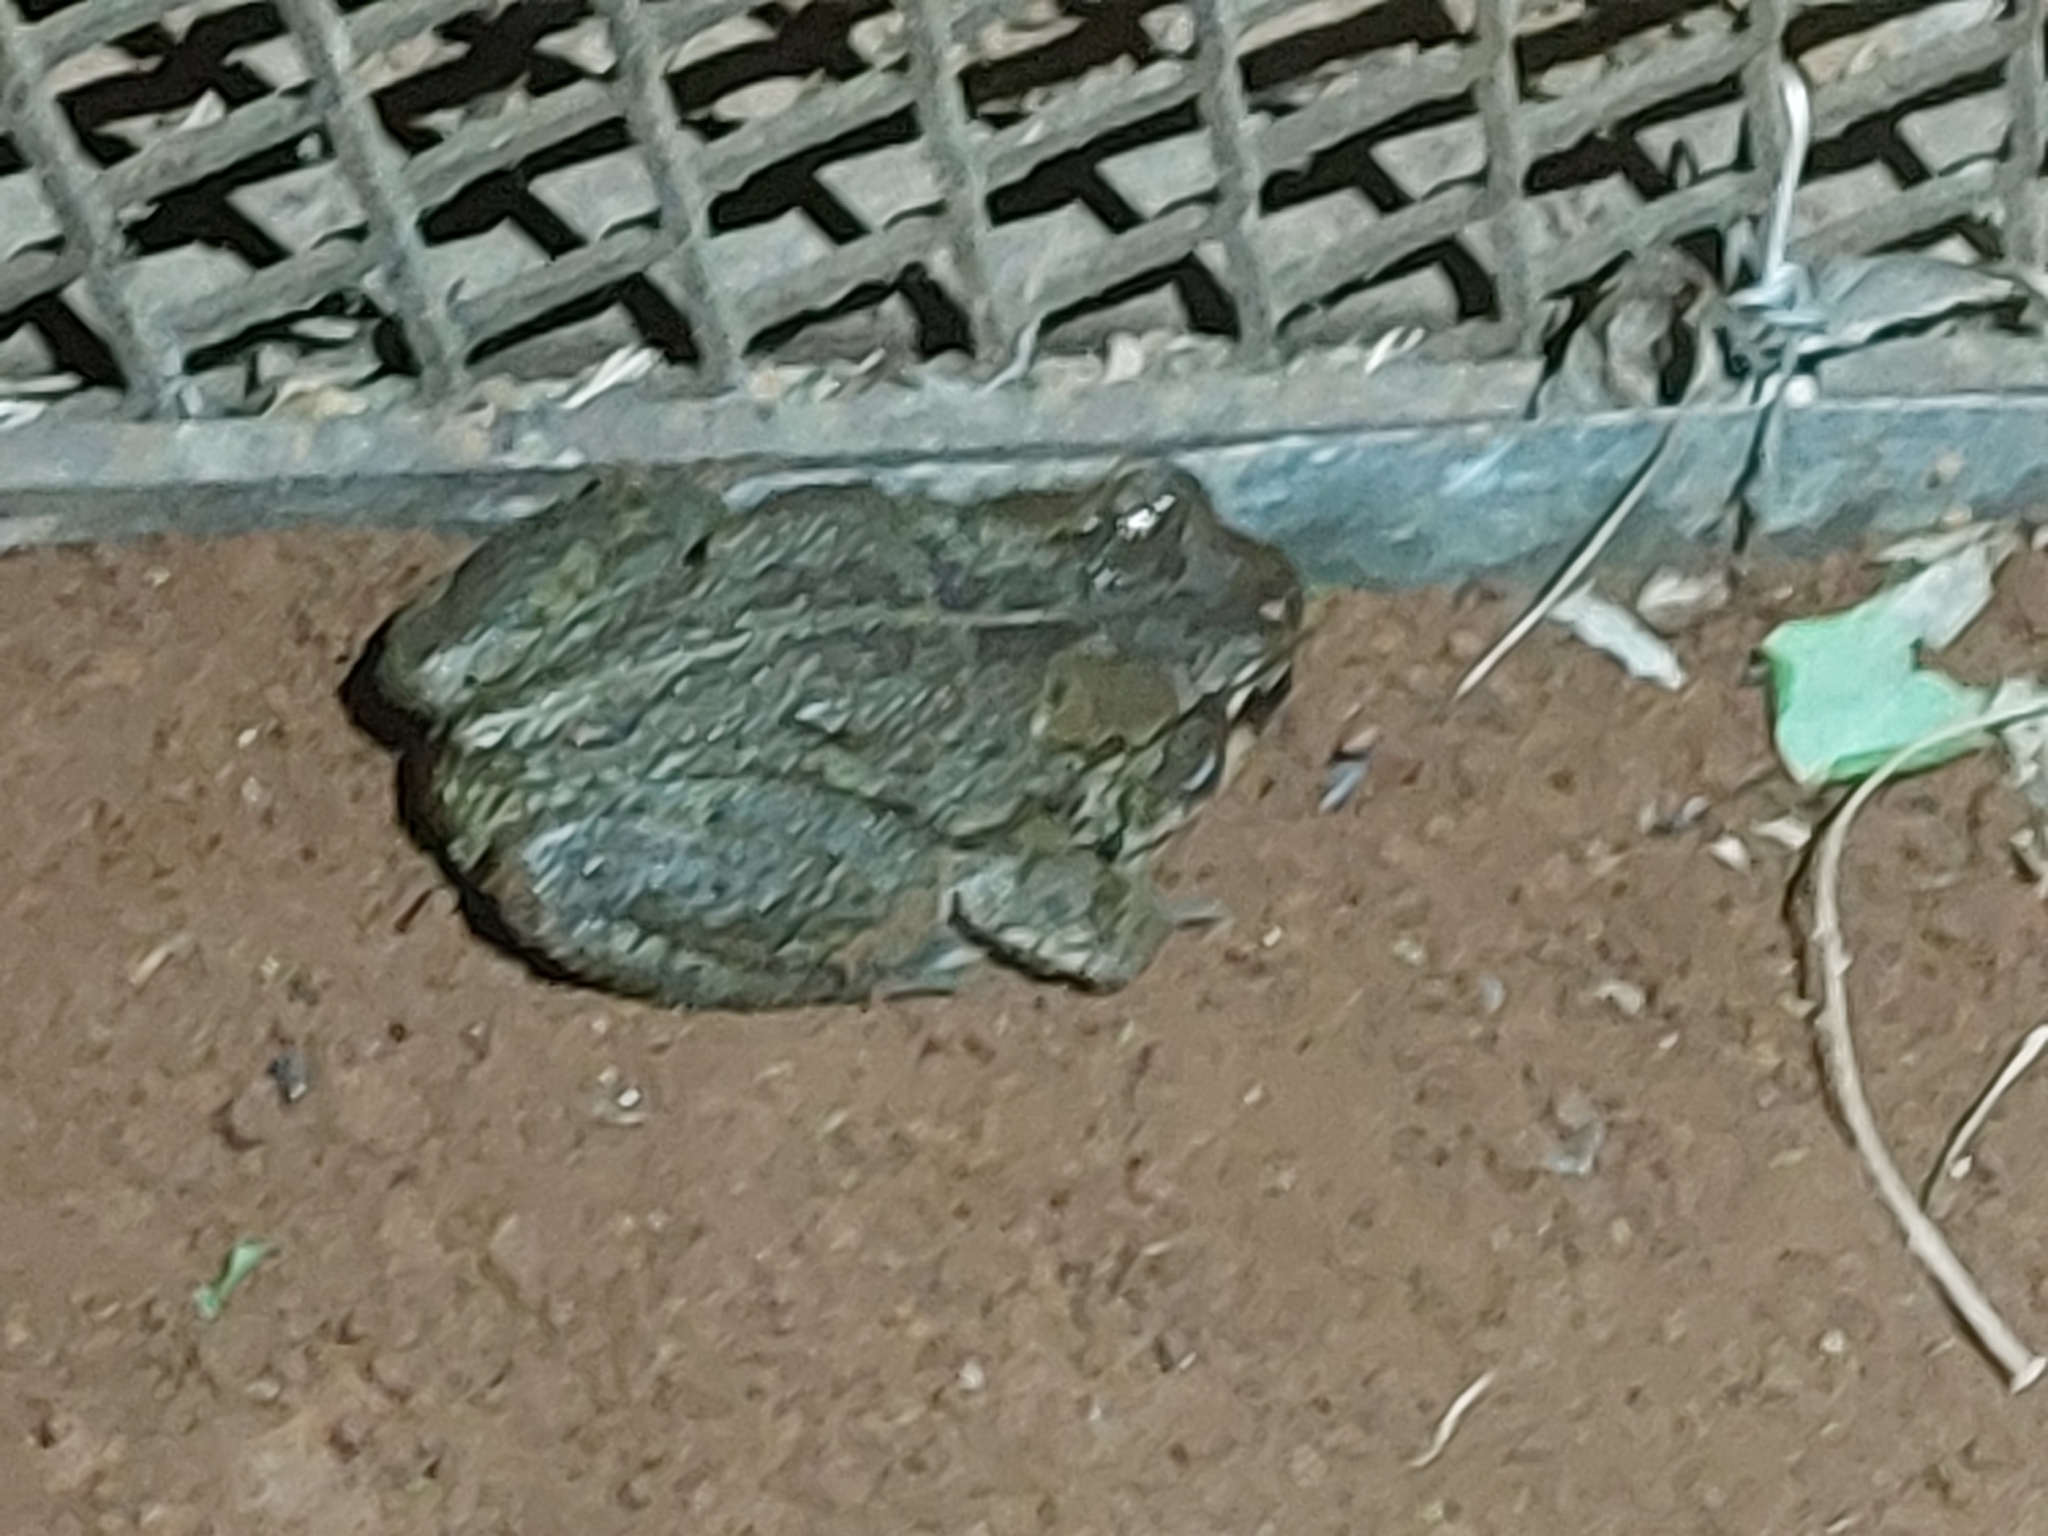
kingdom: Animalia
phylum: Chordata
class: Amphibia
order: Anura
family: Bufonidae
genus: Sclerophrys
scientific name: Sclerophrys capensis
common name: Ranger’s toad
